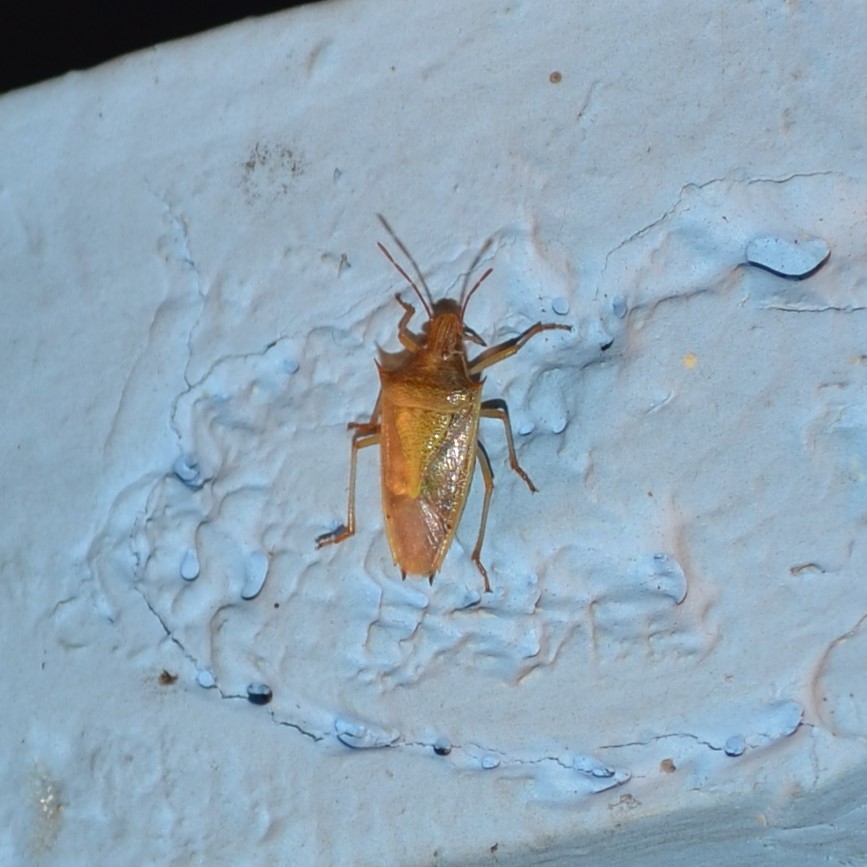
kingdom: Animalia
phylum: Arthropoda
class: Insecta
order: Hemiptera
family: Pentatomidae
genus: Oebalus
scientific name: Oebalus pugnax
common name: Rice stink bug
